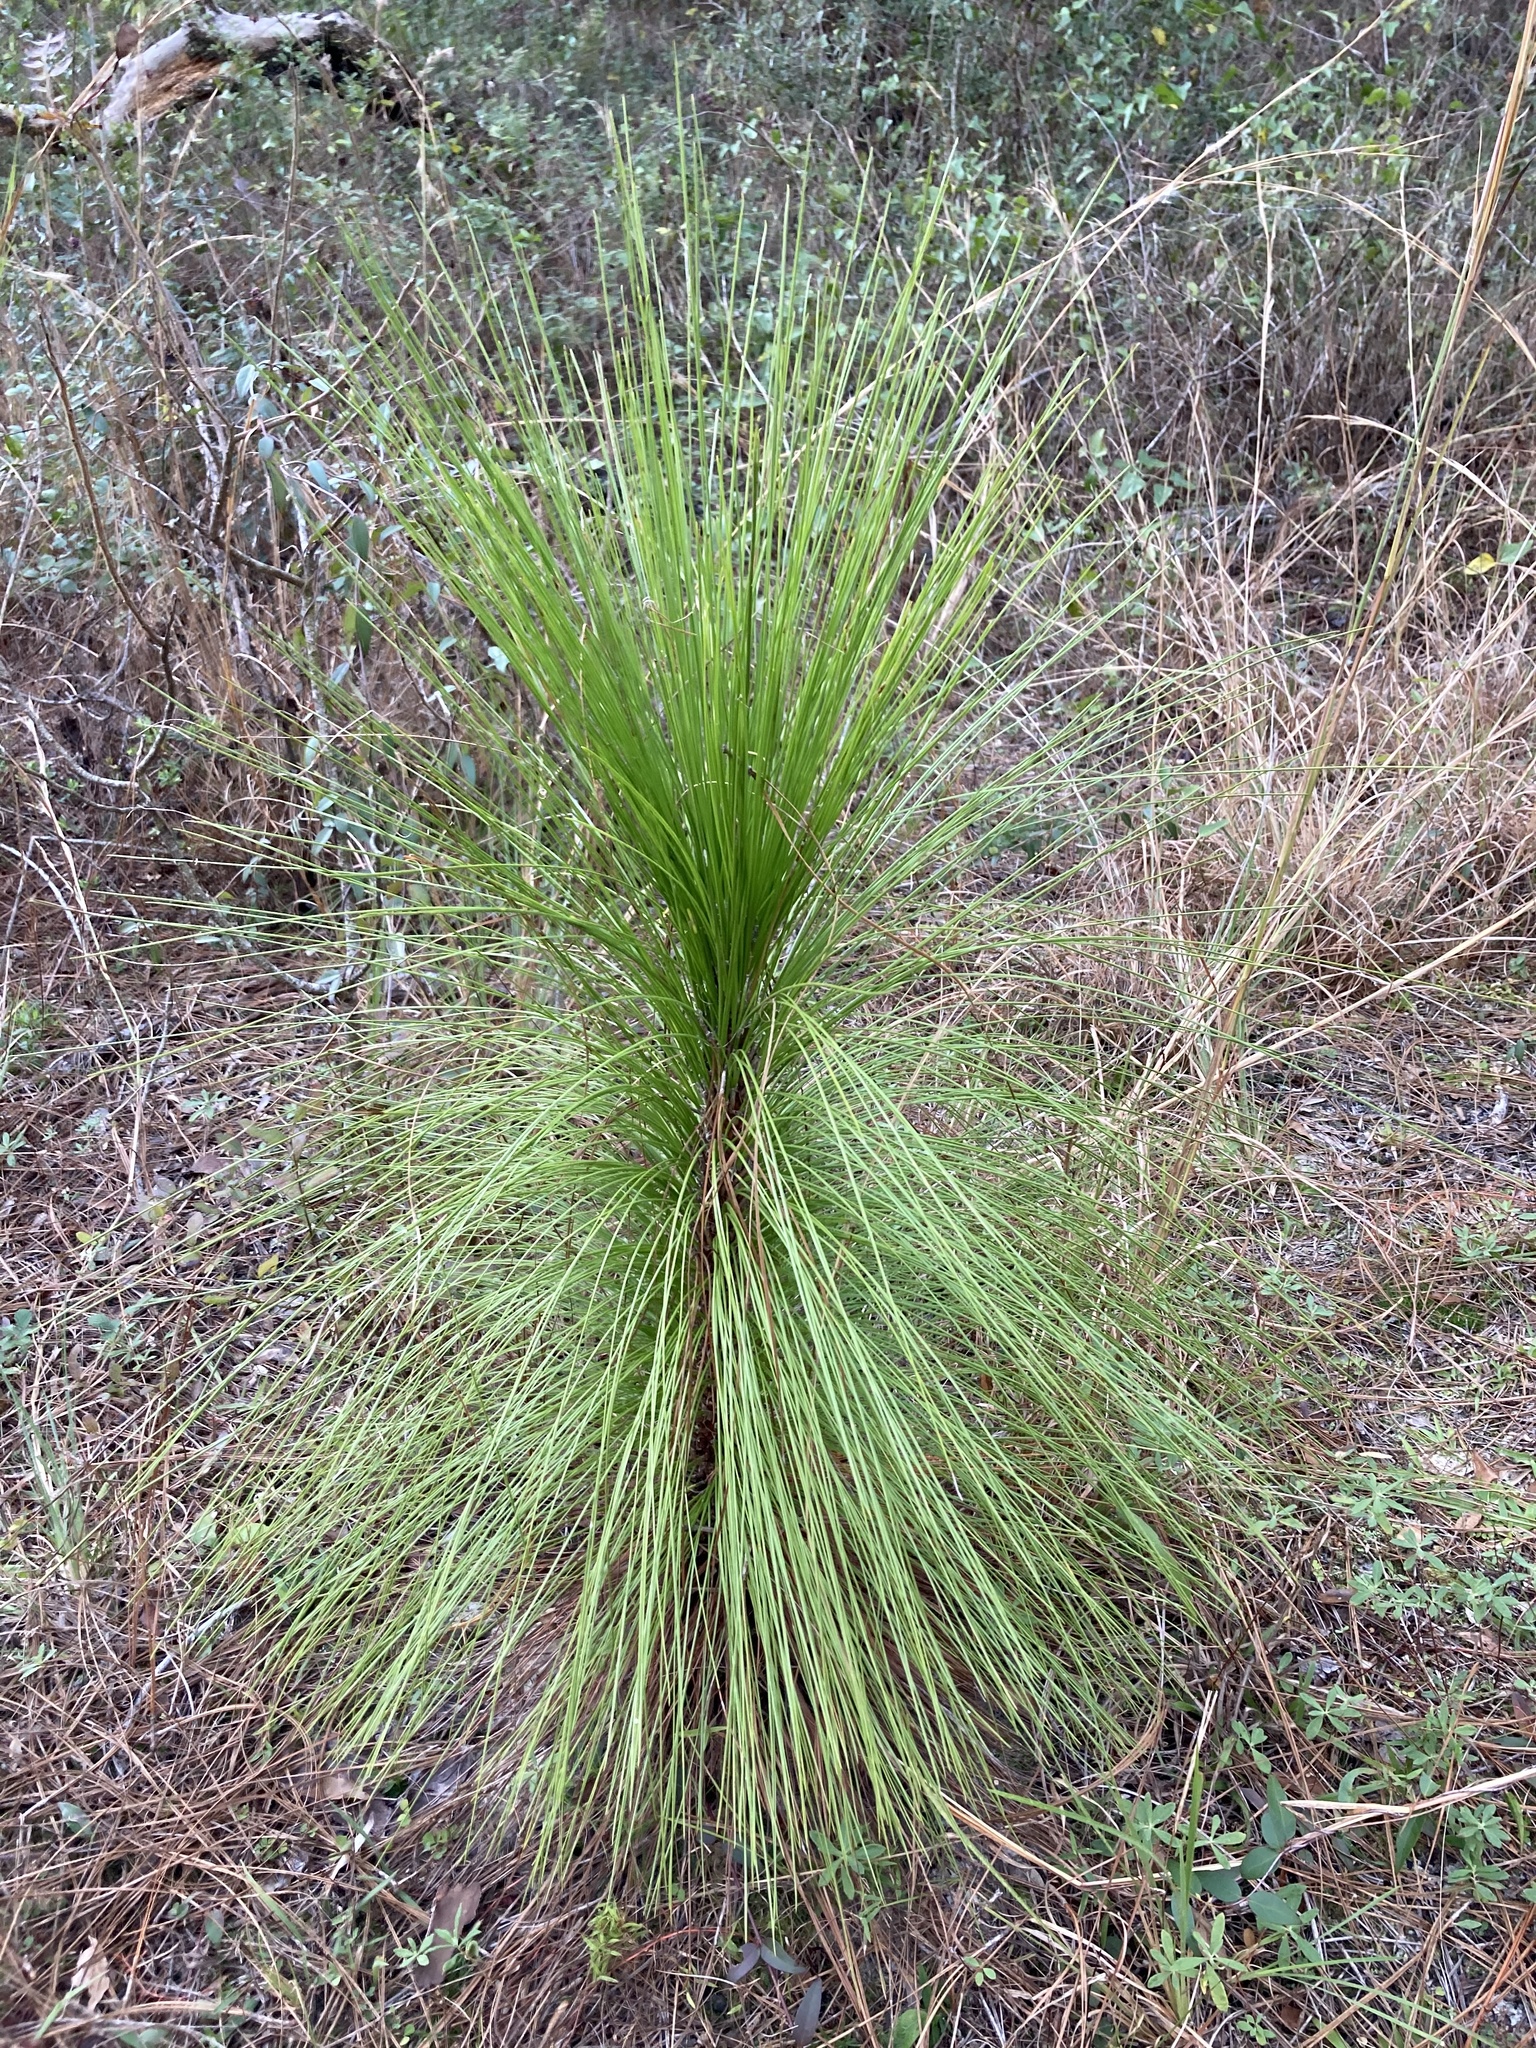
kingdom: Plantae
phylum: Tracheophyta
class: Pinopsida
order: Pinales
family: Pinaceae
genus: Pinus
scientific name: Pinus palustris
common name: Longleaf pine
